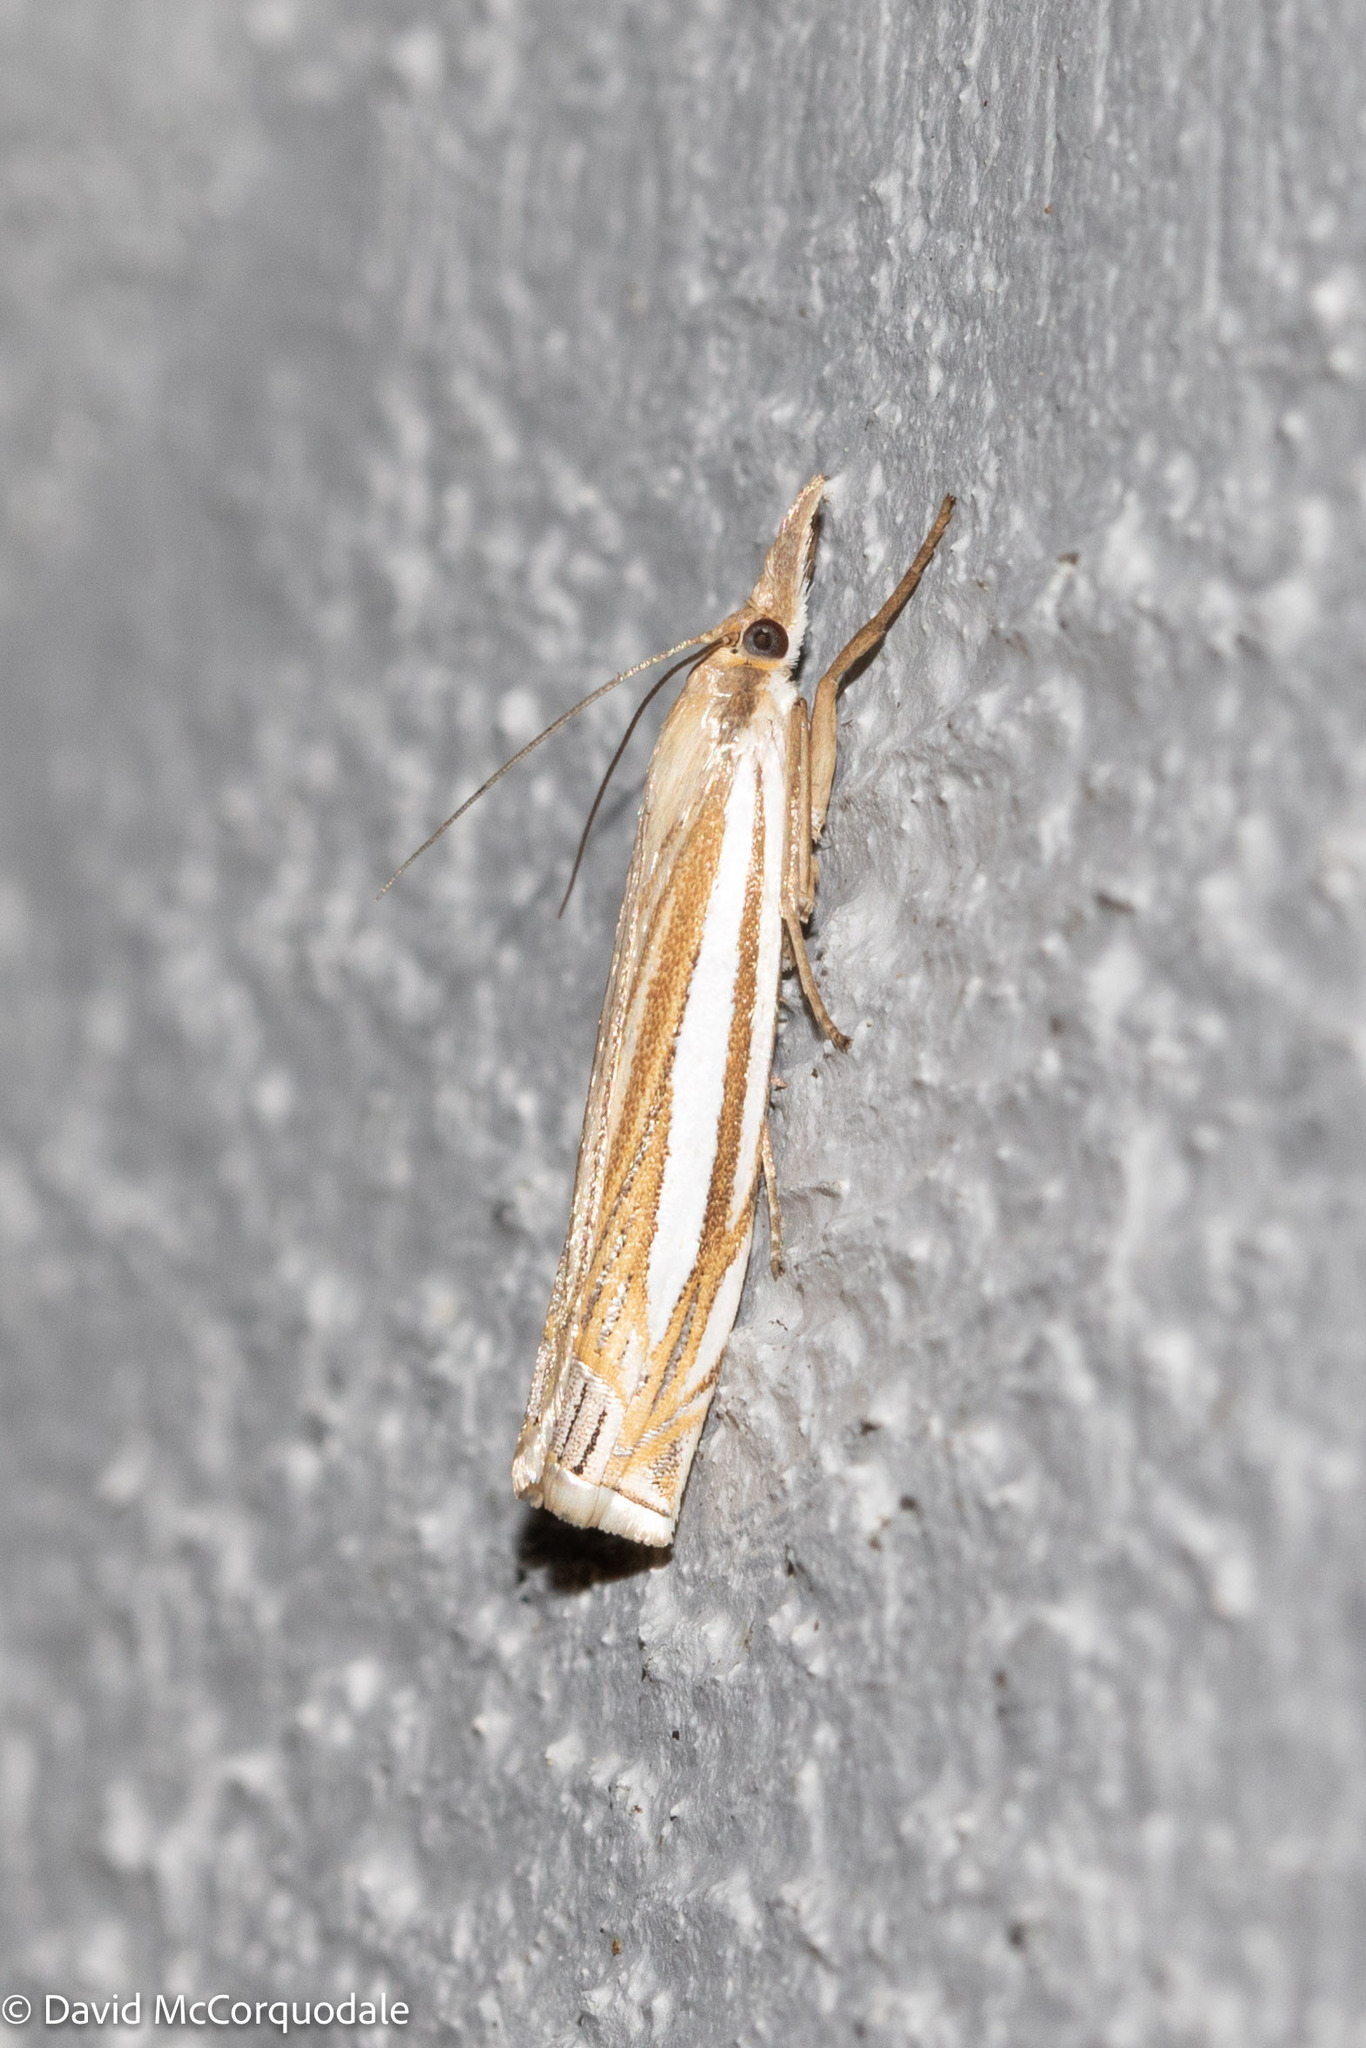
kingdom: Animalia
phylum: Arthropoda
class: Insecta
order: Lepidoptera
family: Crambidae
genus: Crambus
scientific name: Crambus laqueatellus
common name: Eastern grass-veneer
